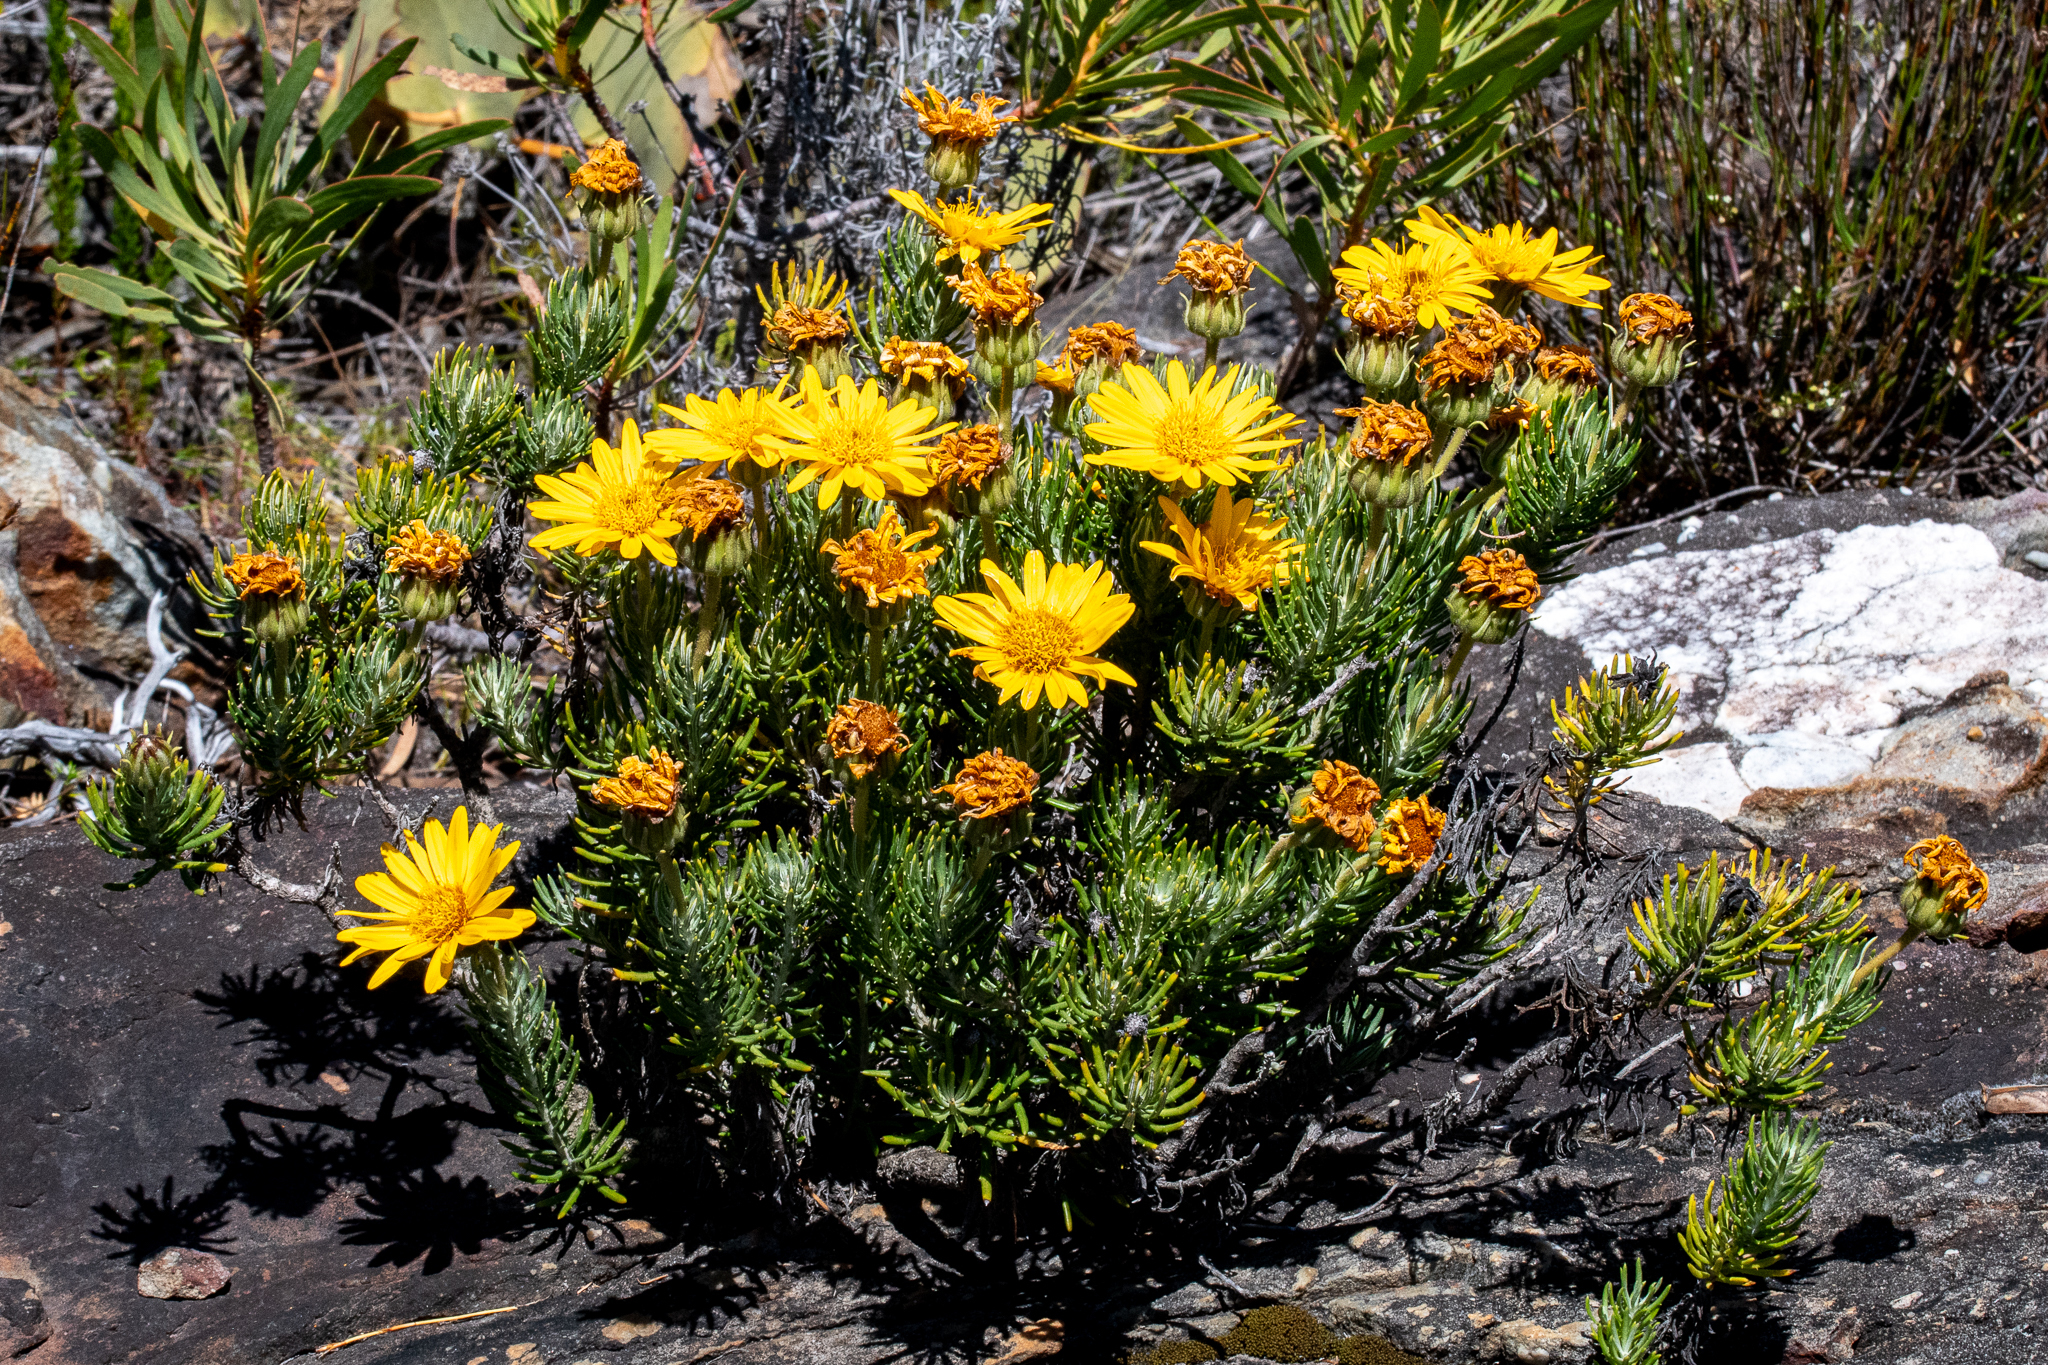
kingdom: Plantae
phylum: Tracheophyta
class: Magnoliopsida
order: Asterales
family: Asteraceae
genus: Heterolepis
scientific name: Heterolepis aliena
